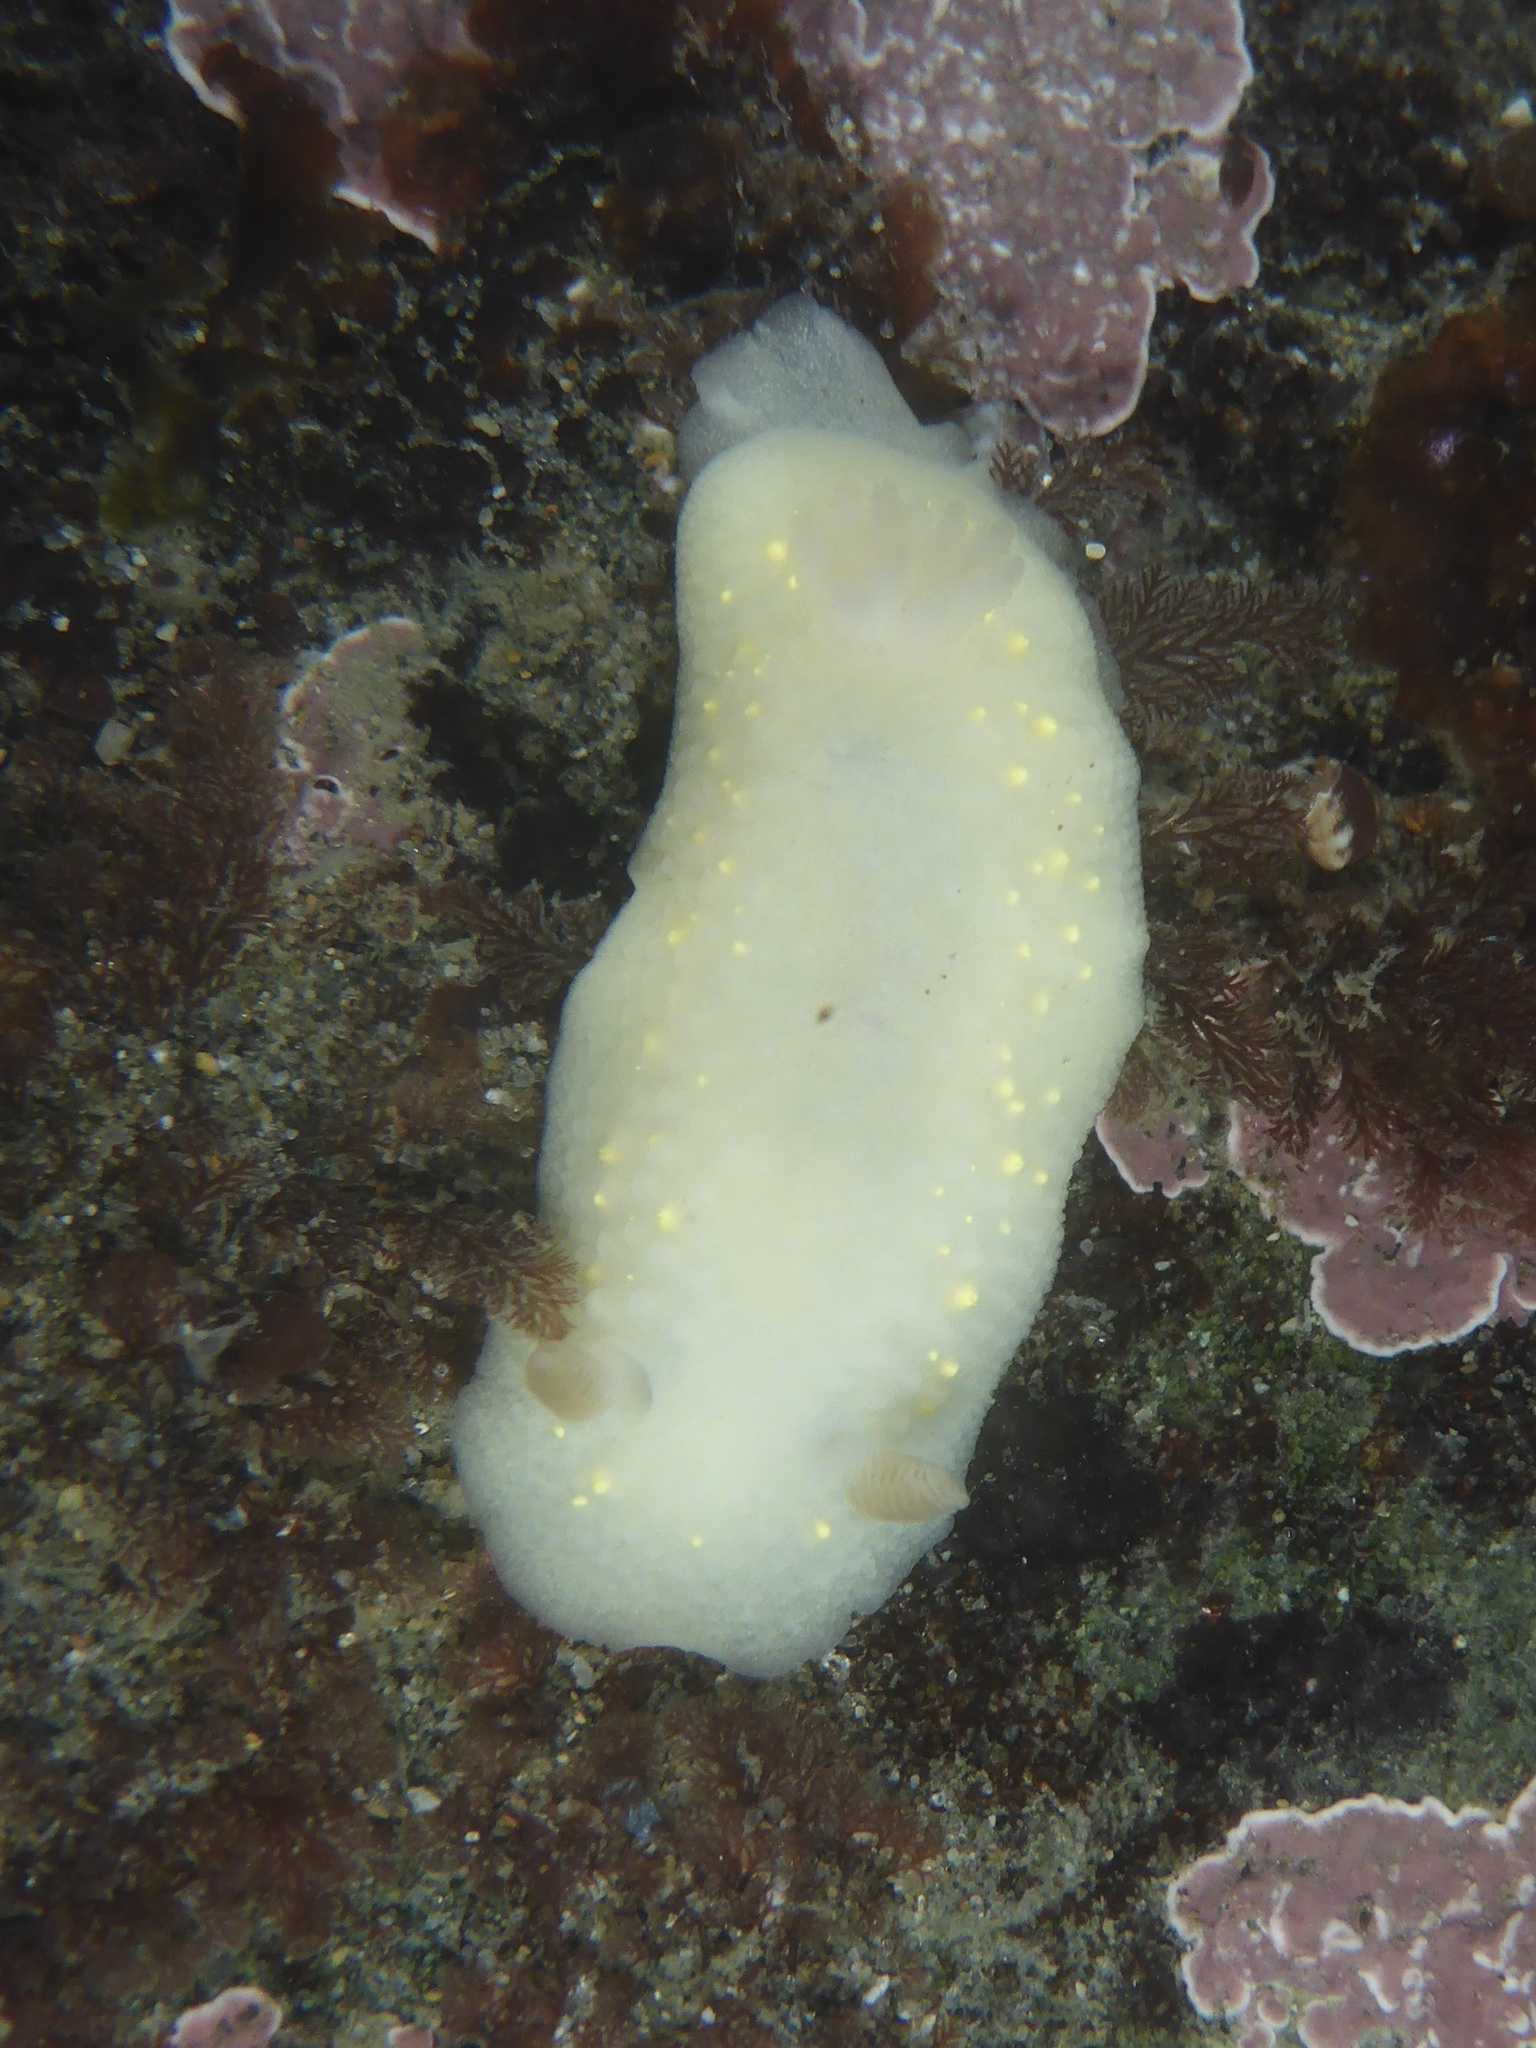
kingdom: Animalia
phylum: Mollusca
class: Gastropoda
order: Nudibranchia
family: Cadlinidae
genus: Cadlina
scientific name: Cadlina modesta
